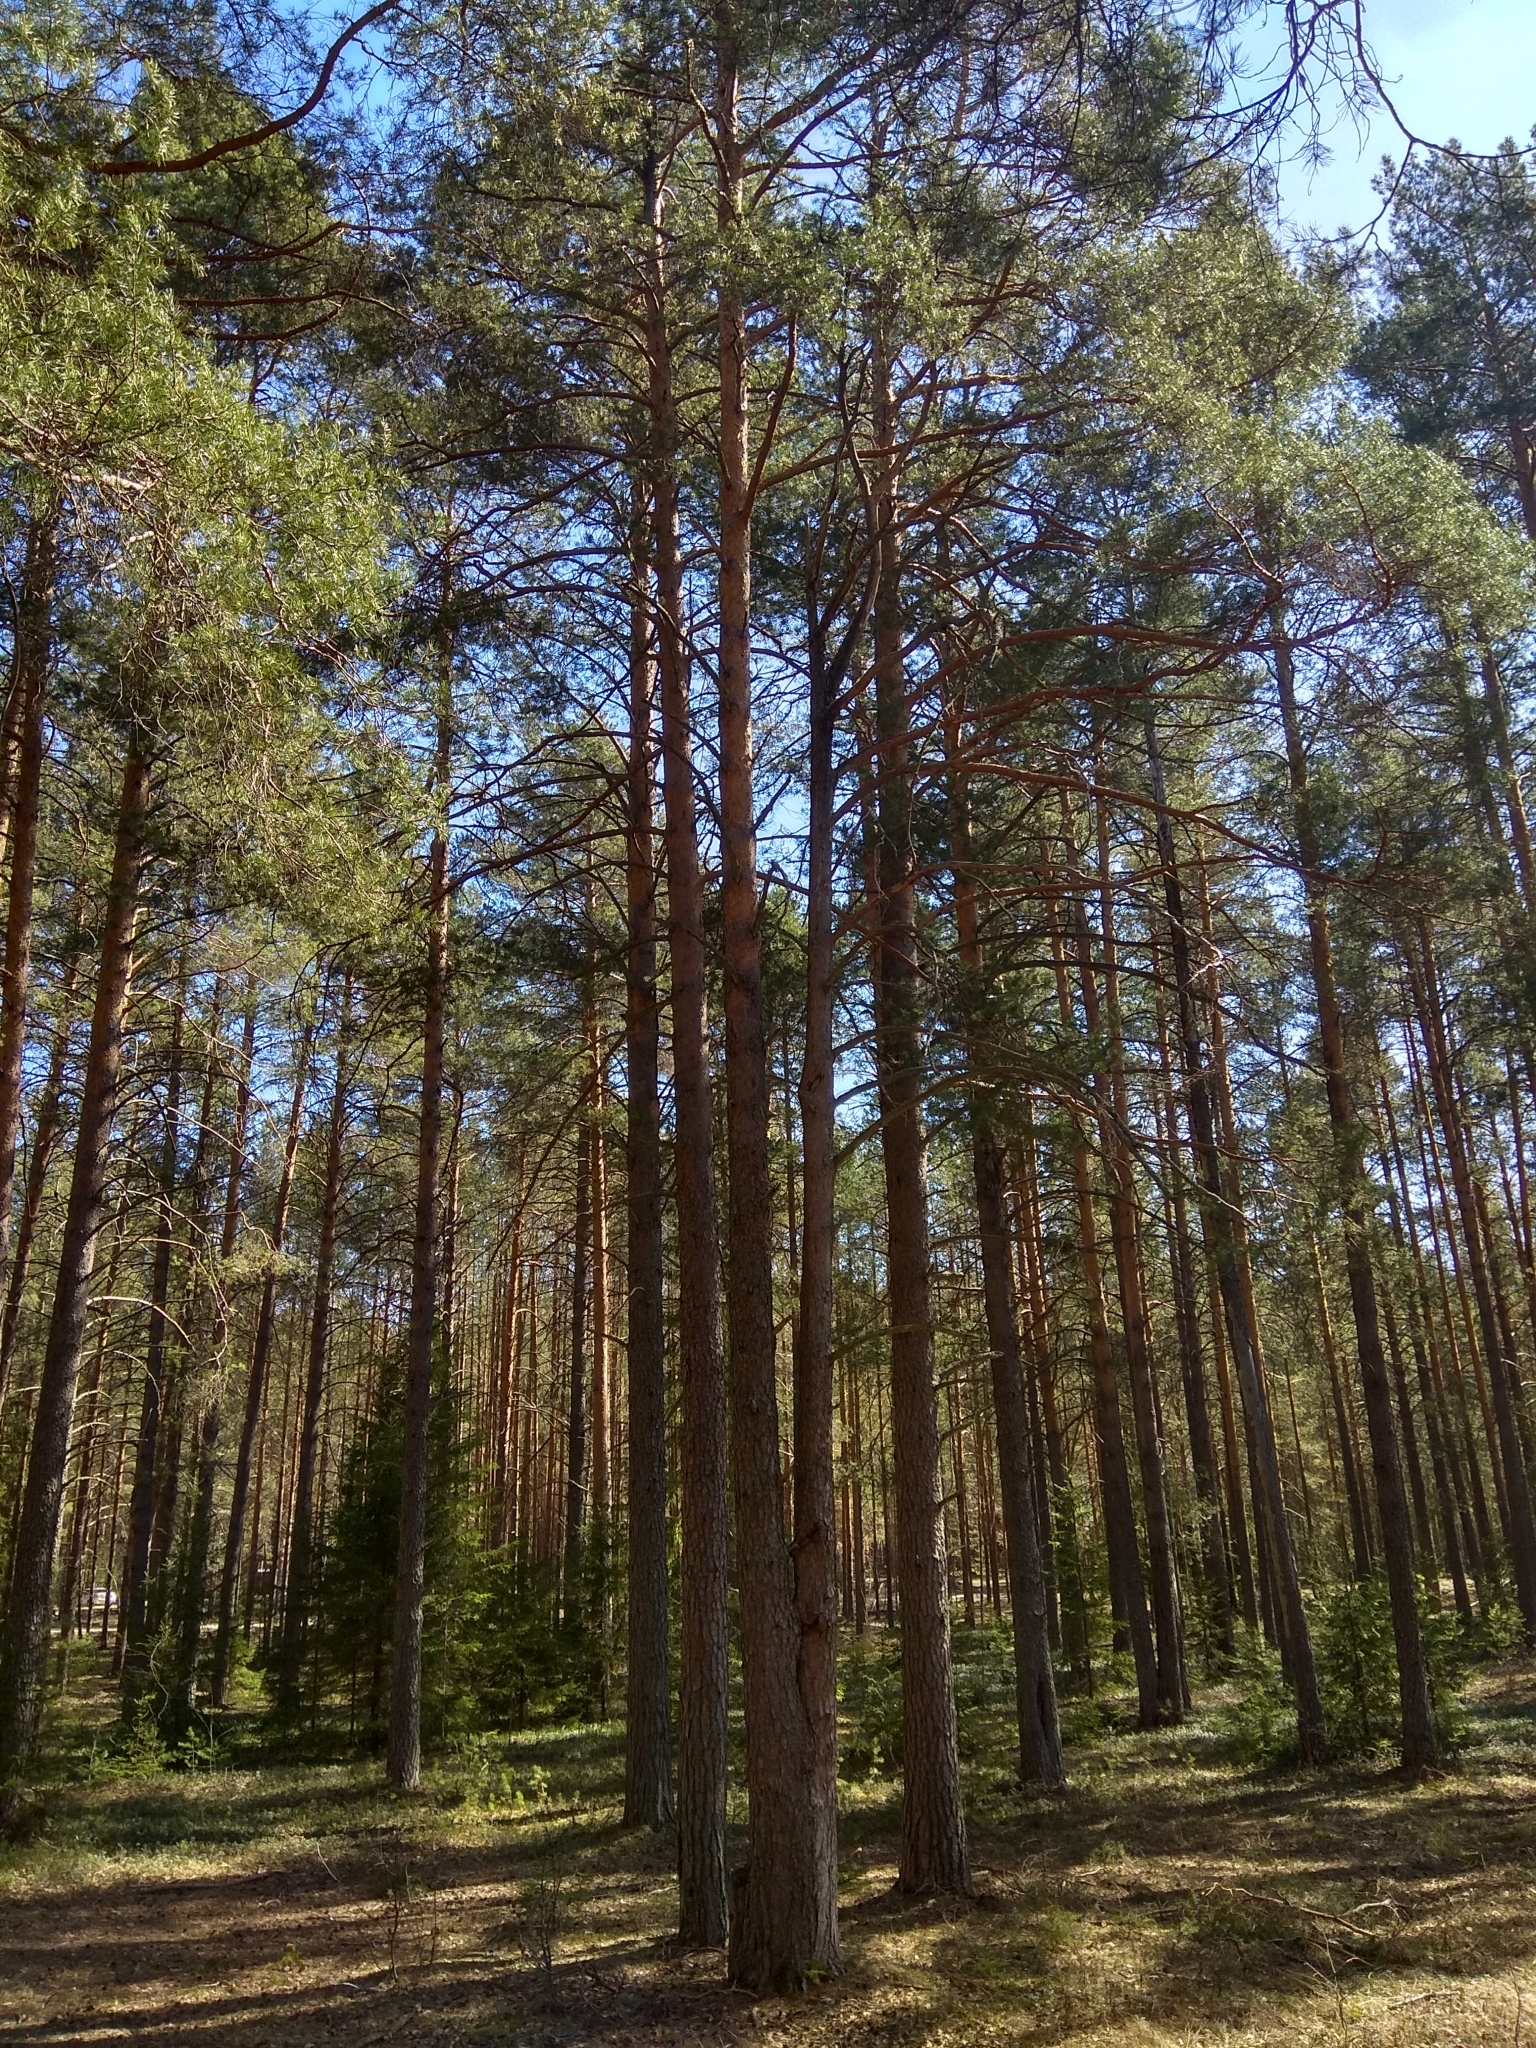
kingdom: Plantae
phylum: Tracheophyta
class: Pinopsida
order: Pinales
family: Pinaceae
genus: Pinus
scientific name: Pinus sylvestris
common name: Scots pine
